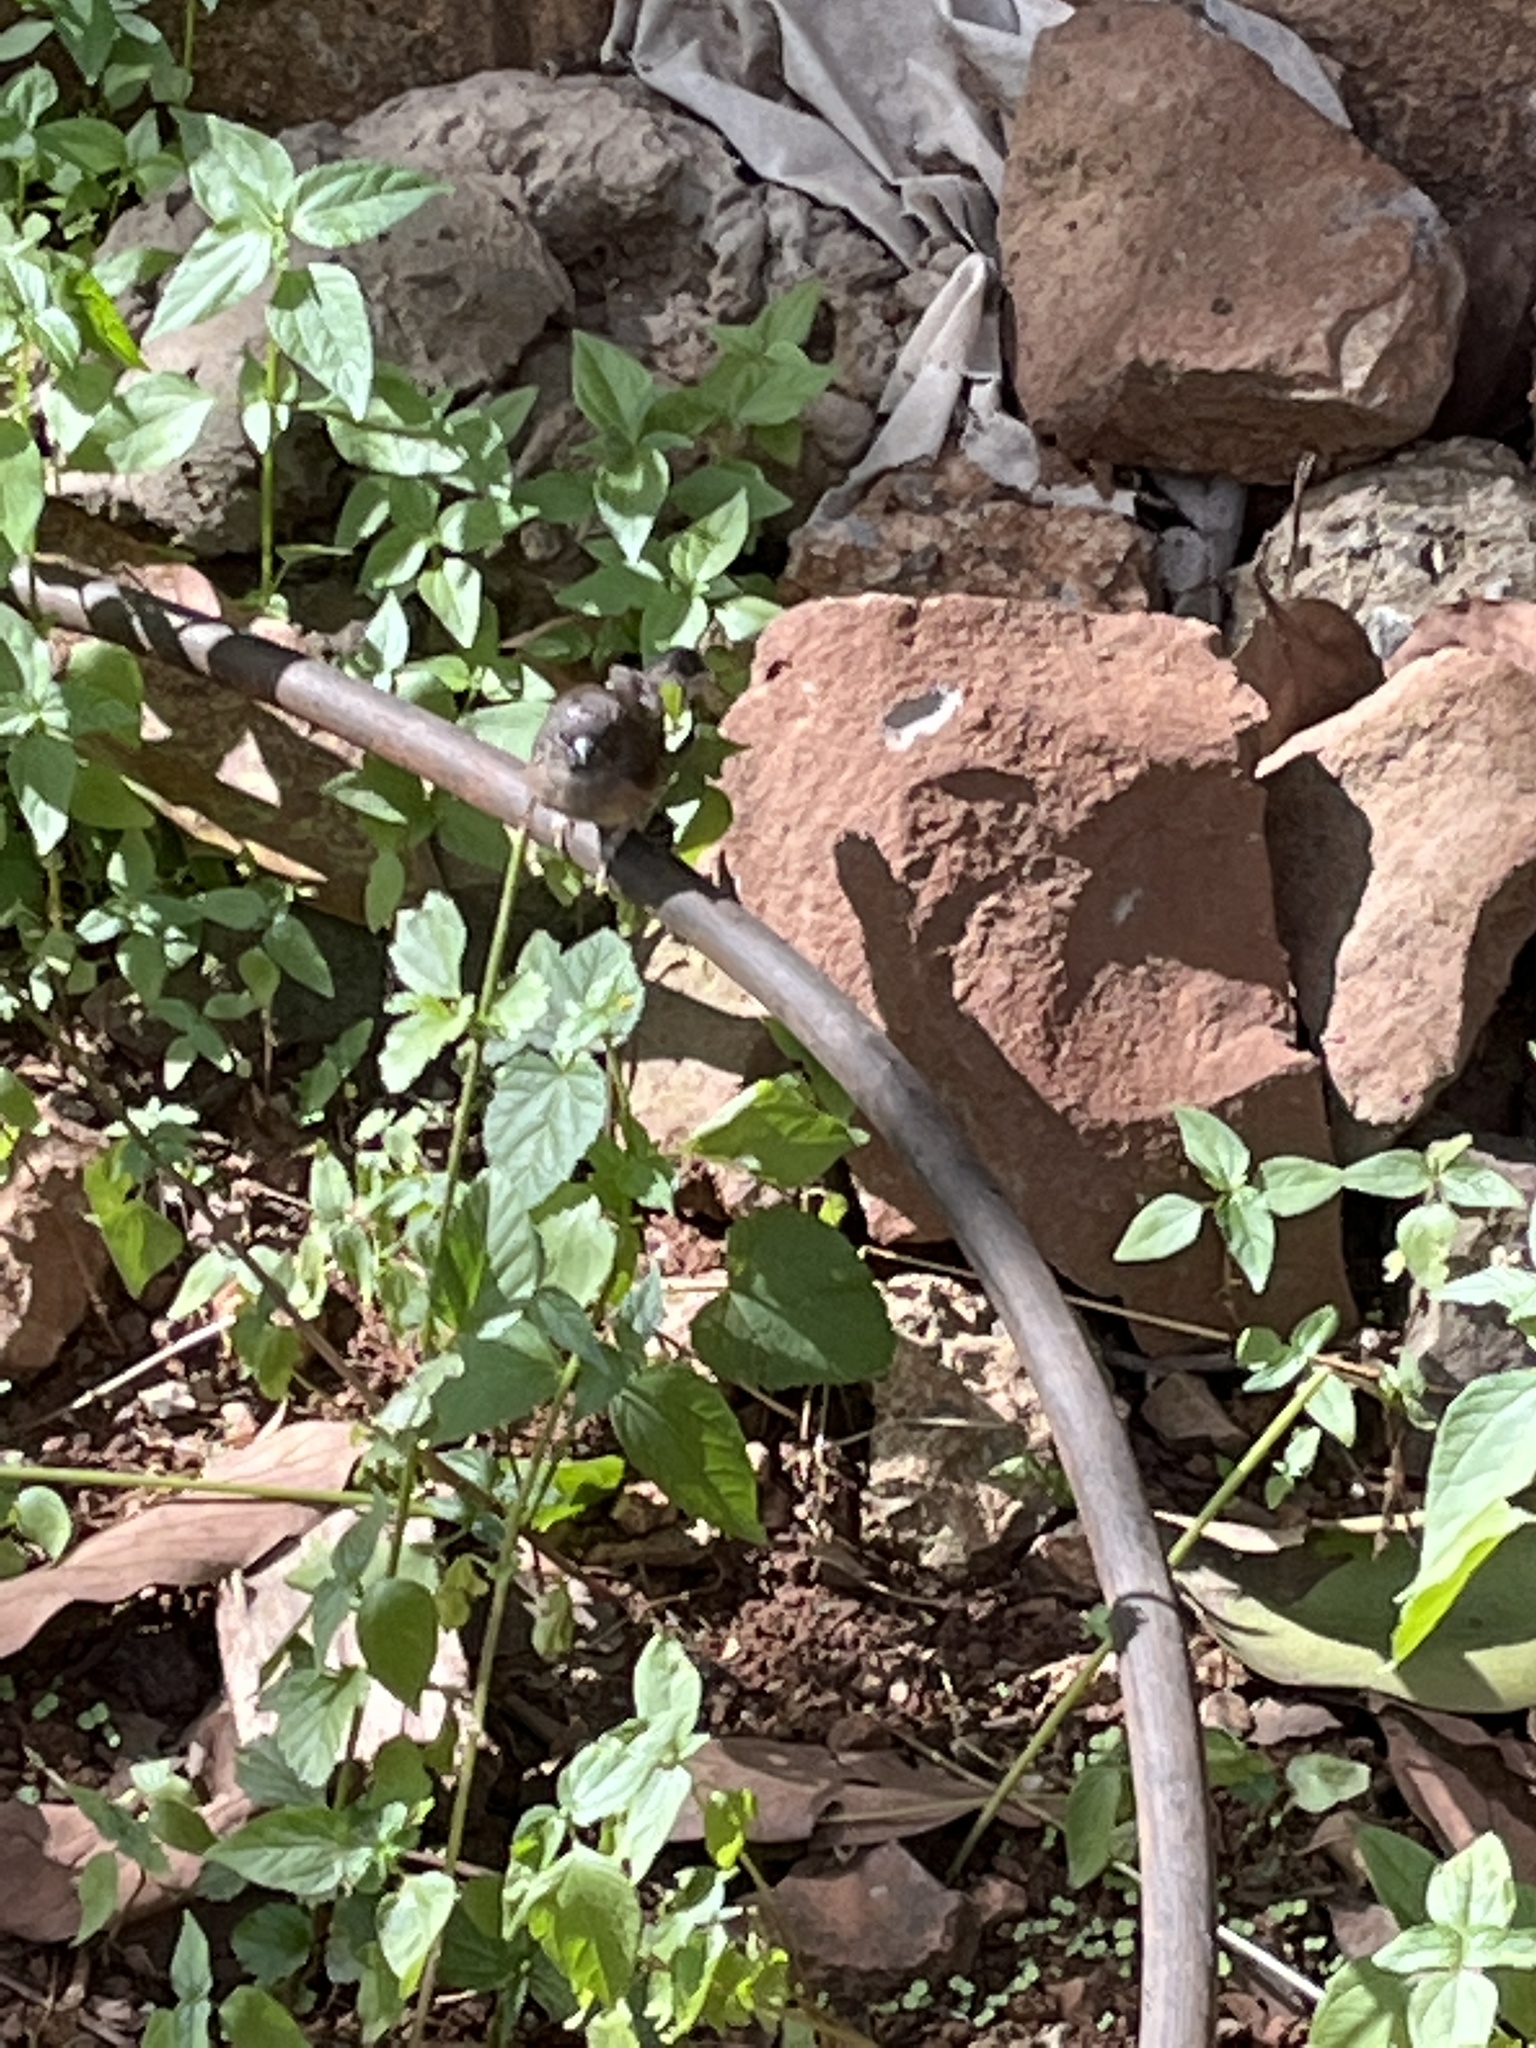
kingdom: Animalia
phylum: Chordata
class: Aves
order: Passeriformes
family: Estrildidae
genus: Lonchura
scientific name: Lonchura cucullata
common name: Bronze mannikin
